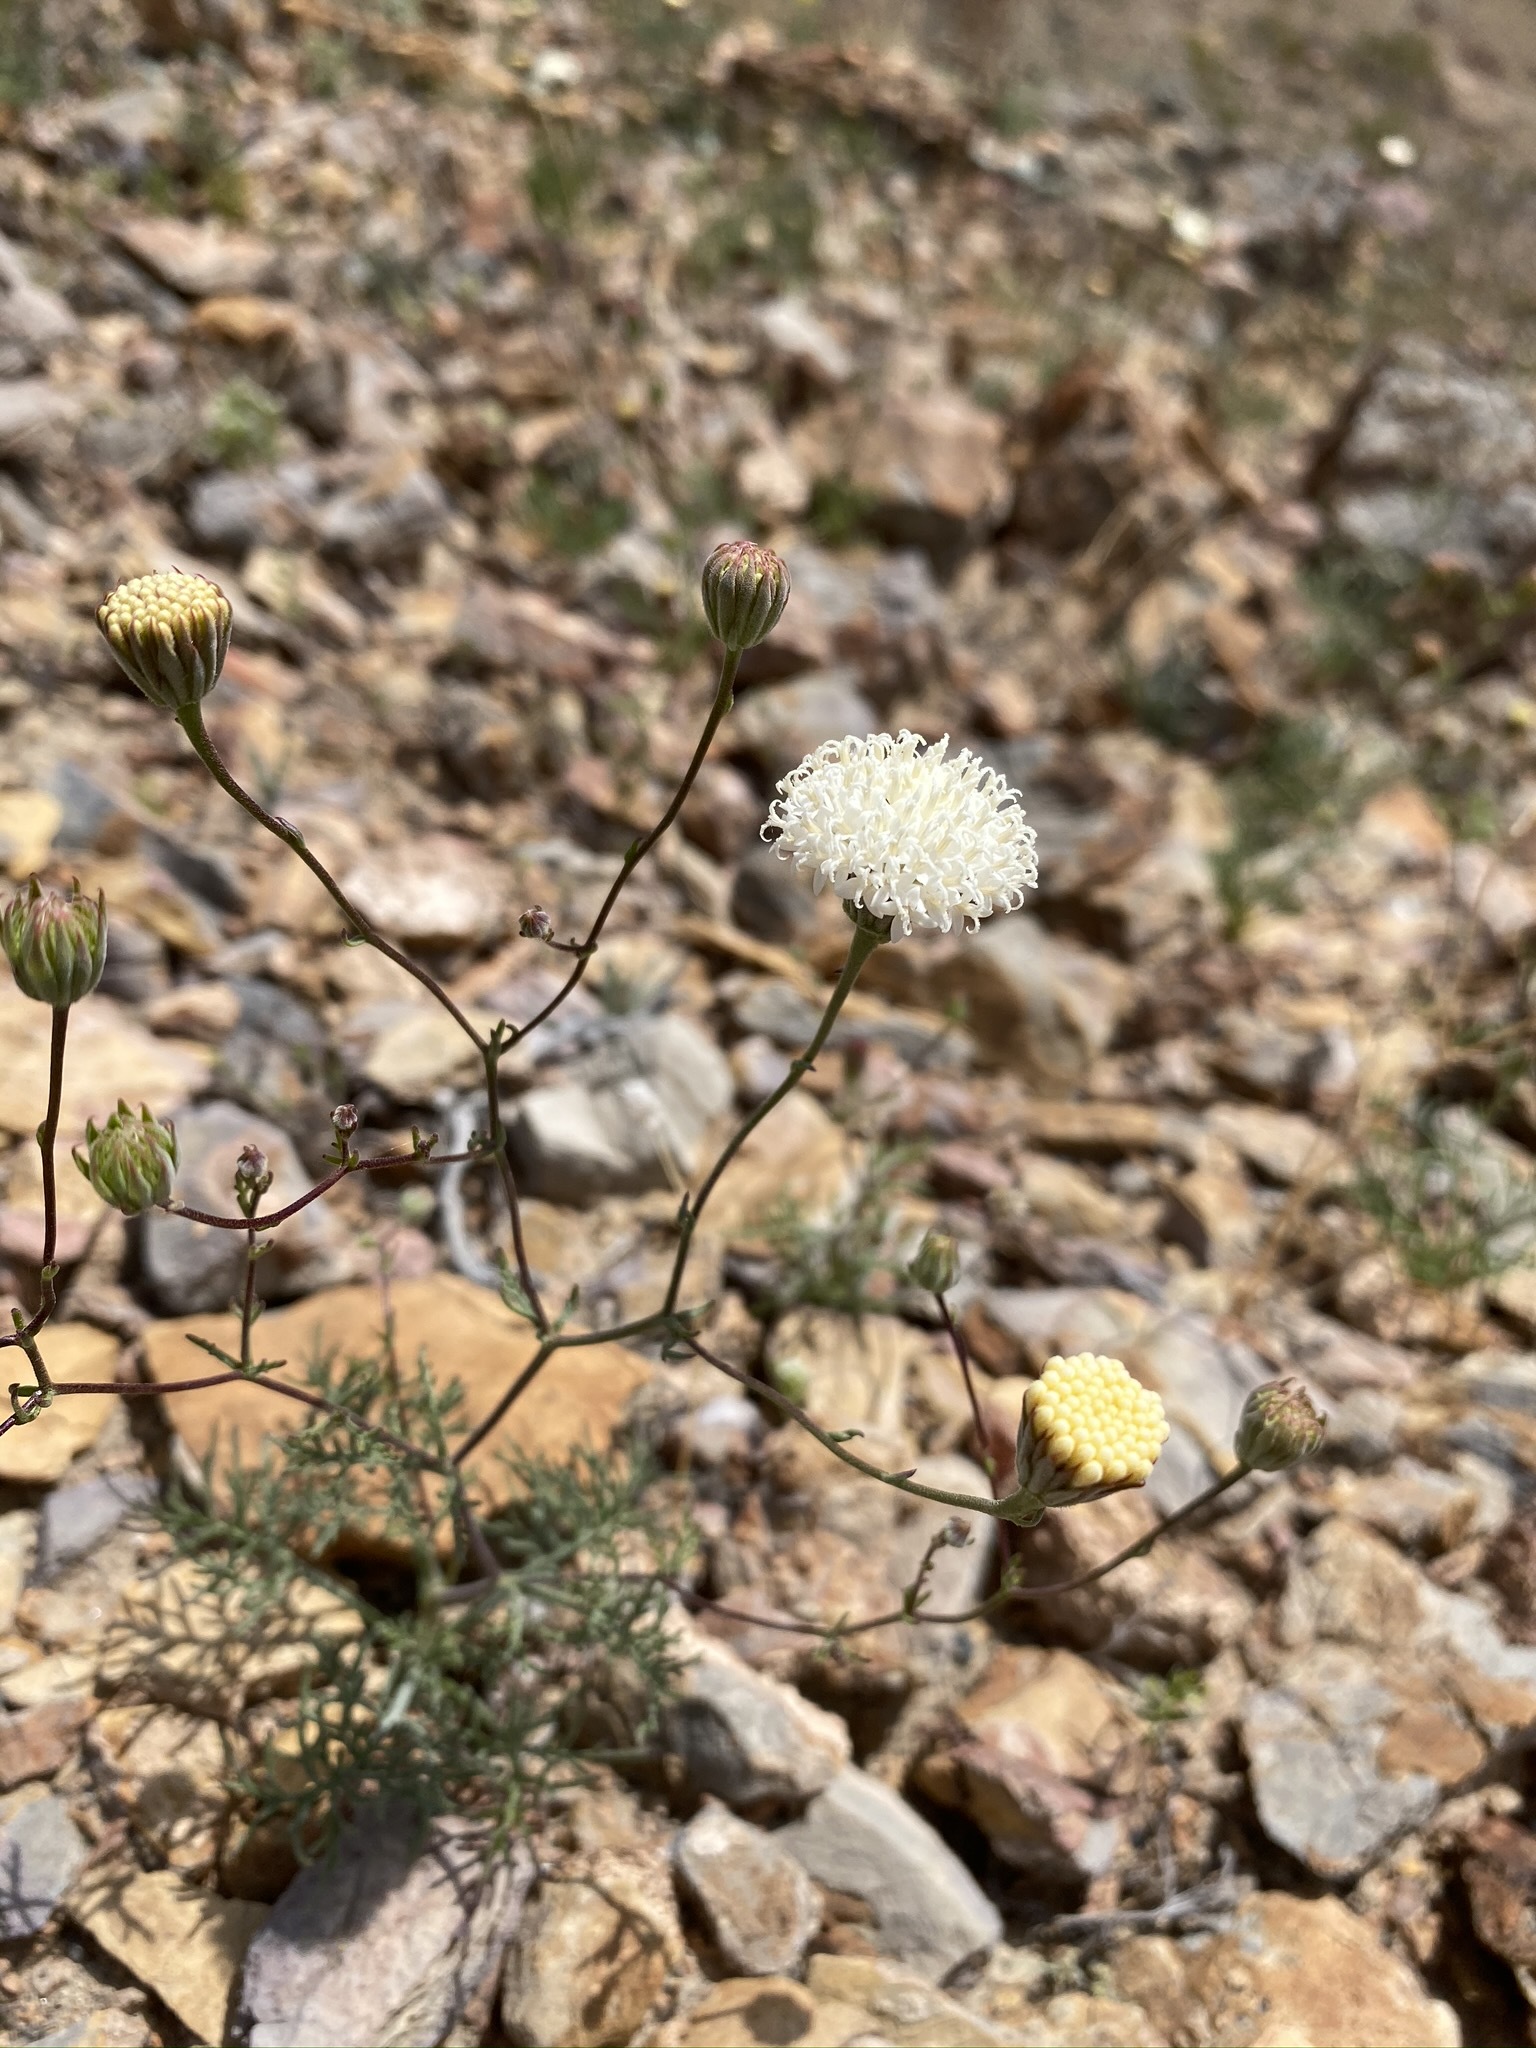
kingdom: Plantae
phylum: Tracheophyta
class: Magnoliopsida
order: Asterales
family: Asteraceae
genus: Chaenactis
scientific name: Chaenactis carphoclinia
